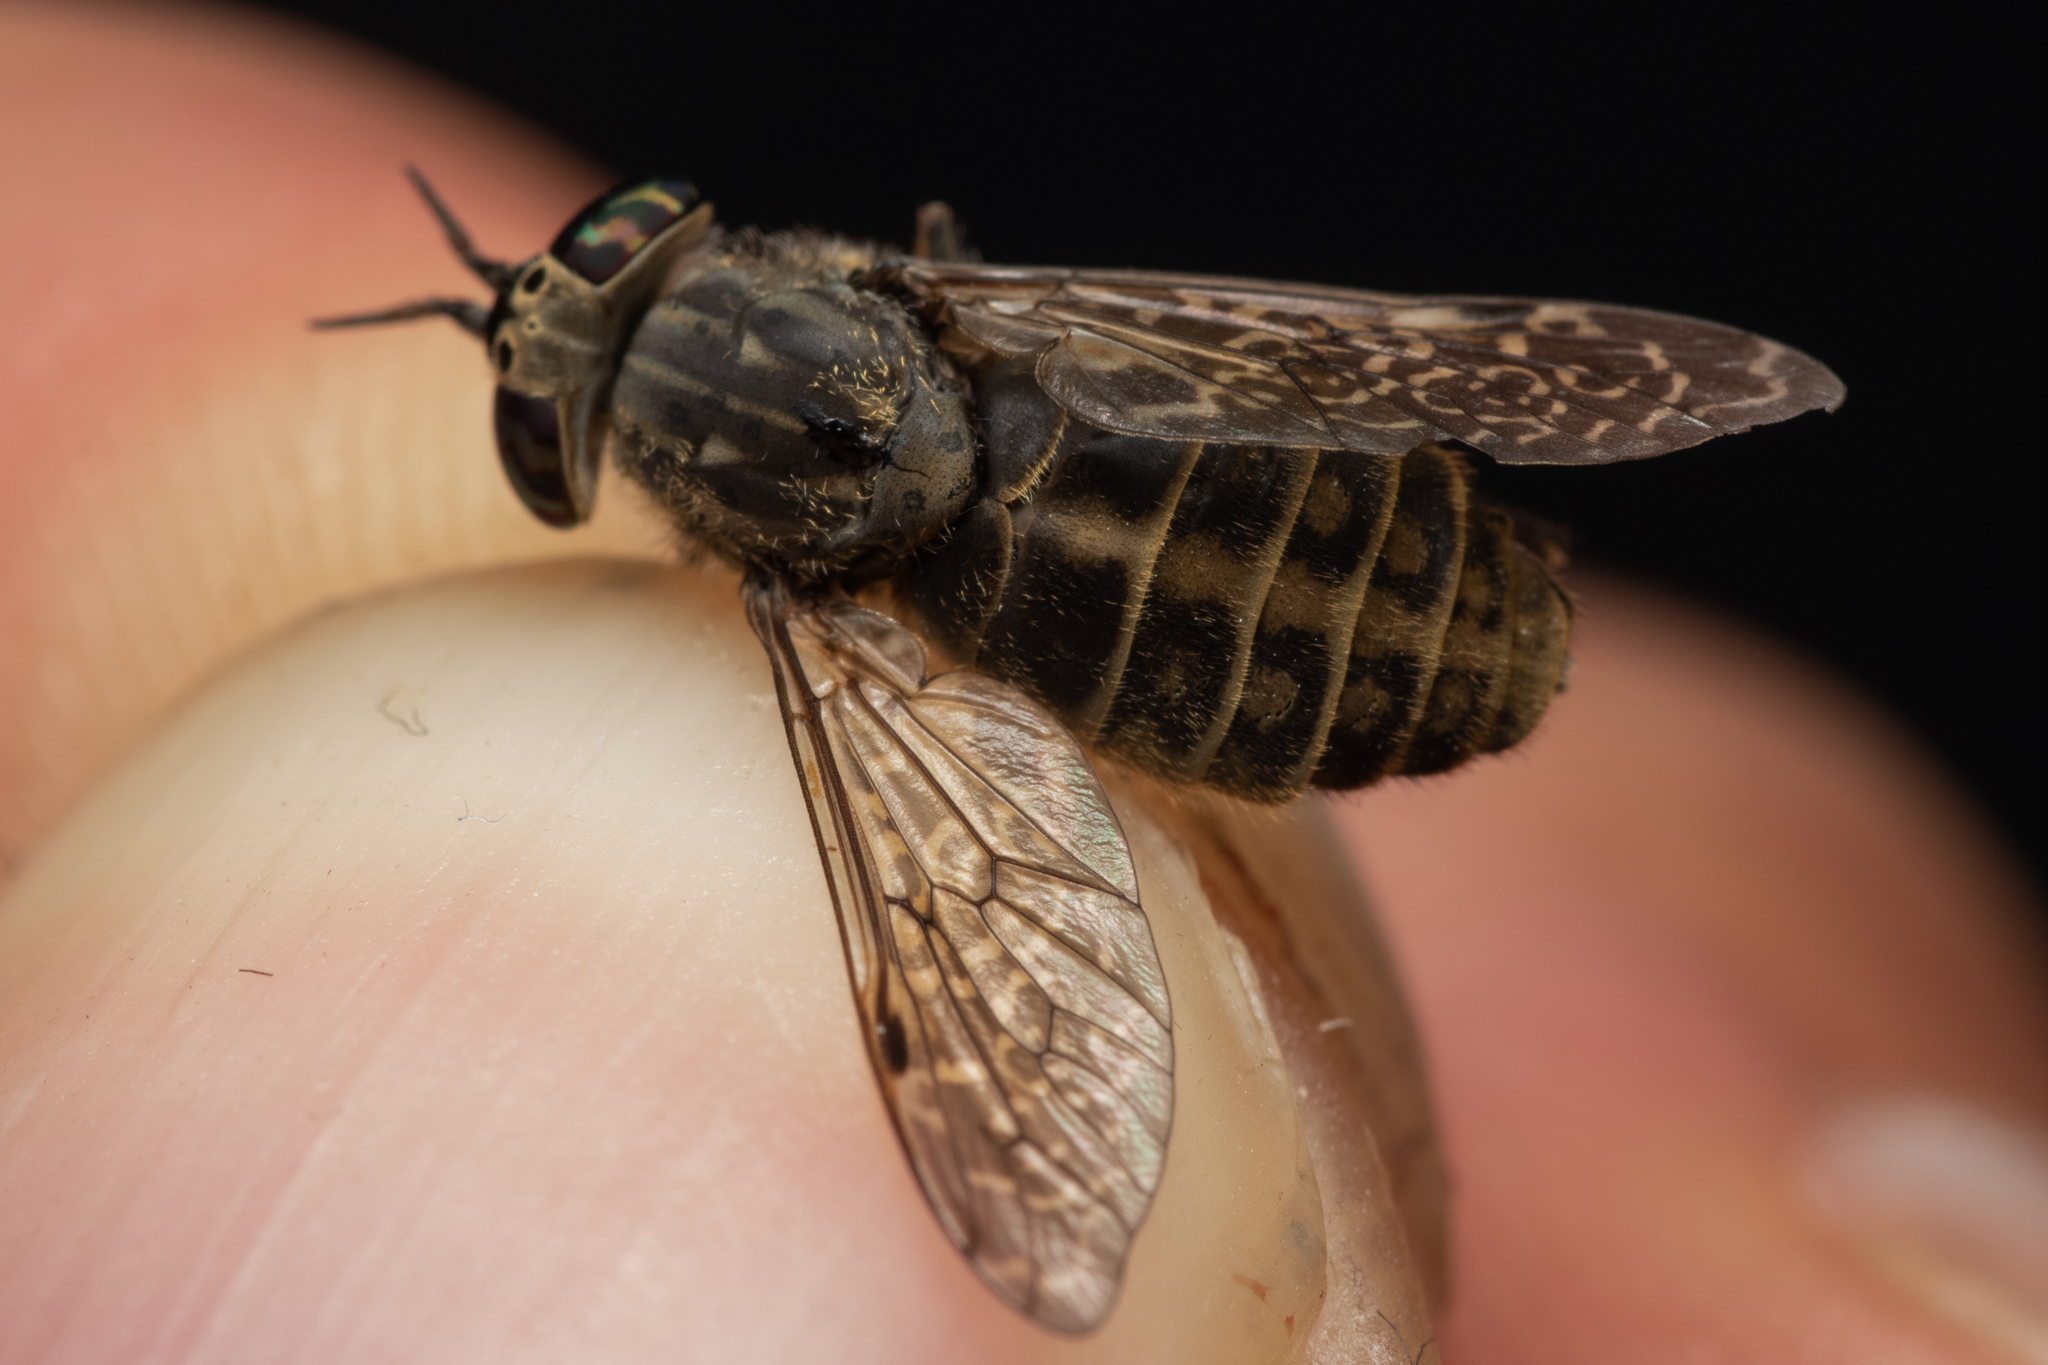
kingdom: Animalia
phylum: Arthropoda
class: Insecta
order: Diptera
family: Tabanidae
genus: Haematopota
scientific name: Haematopota pluvialis
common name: Common horse fly
